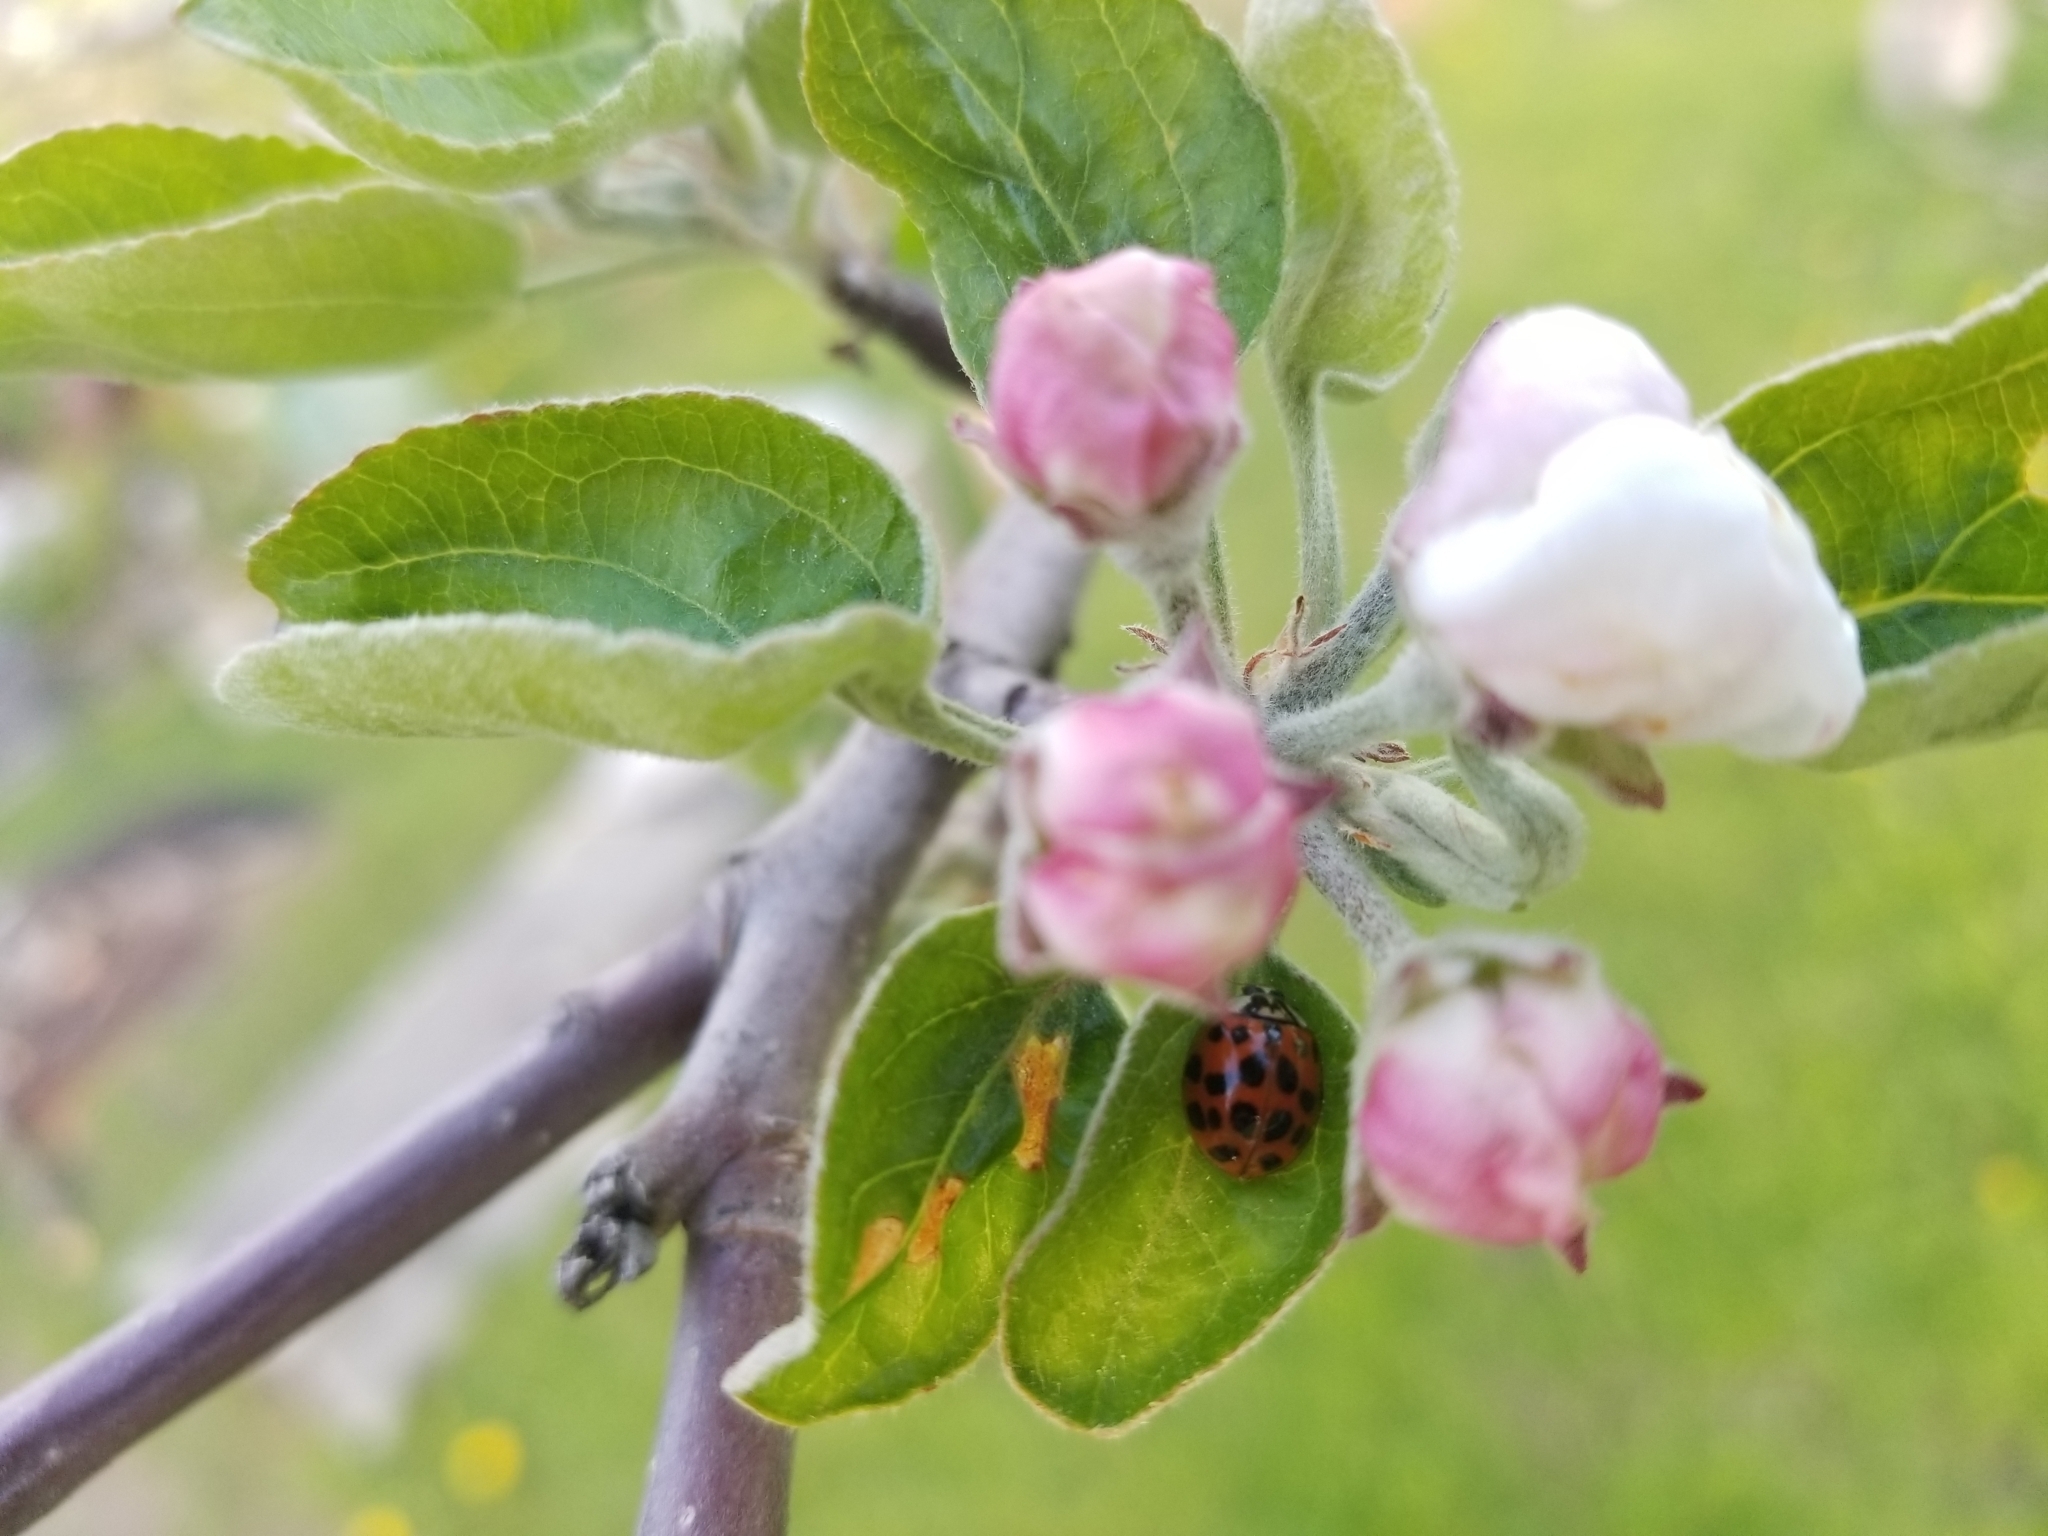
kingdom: Animalia
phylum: Arthropoda
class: Insecta
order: Coleoptera
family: Coccinellidae
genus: Harmonia
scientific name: Harmonia axyridis
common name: Harlequin ladybird
